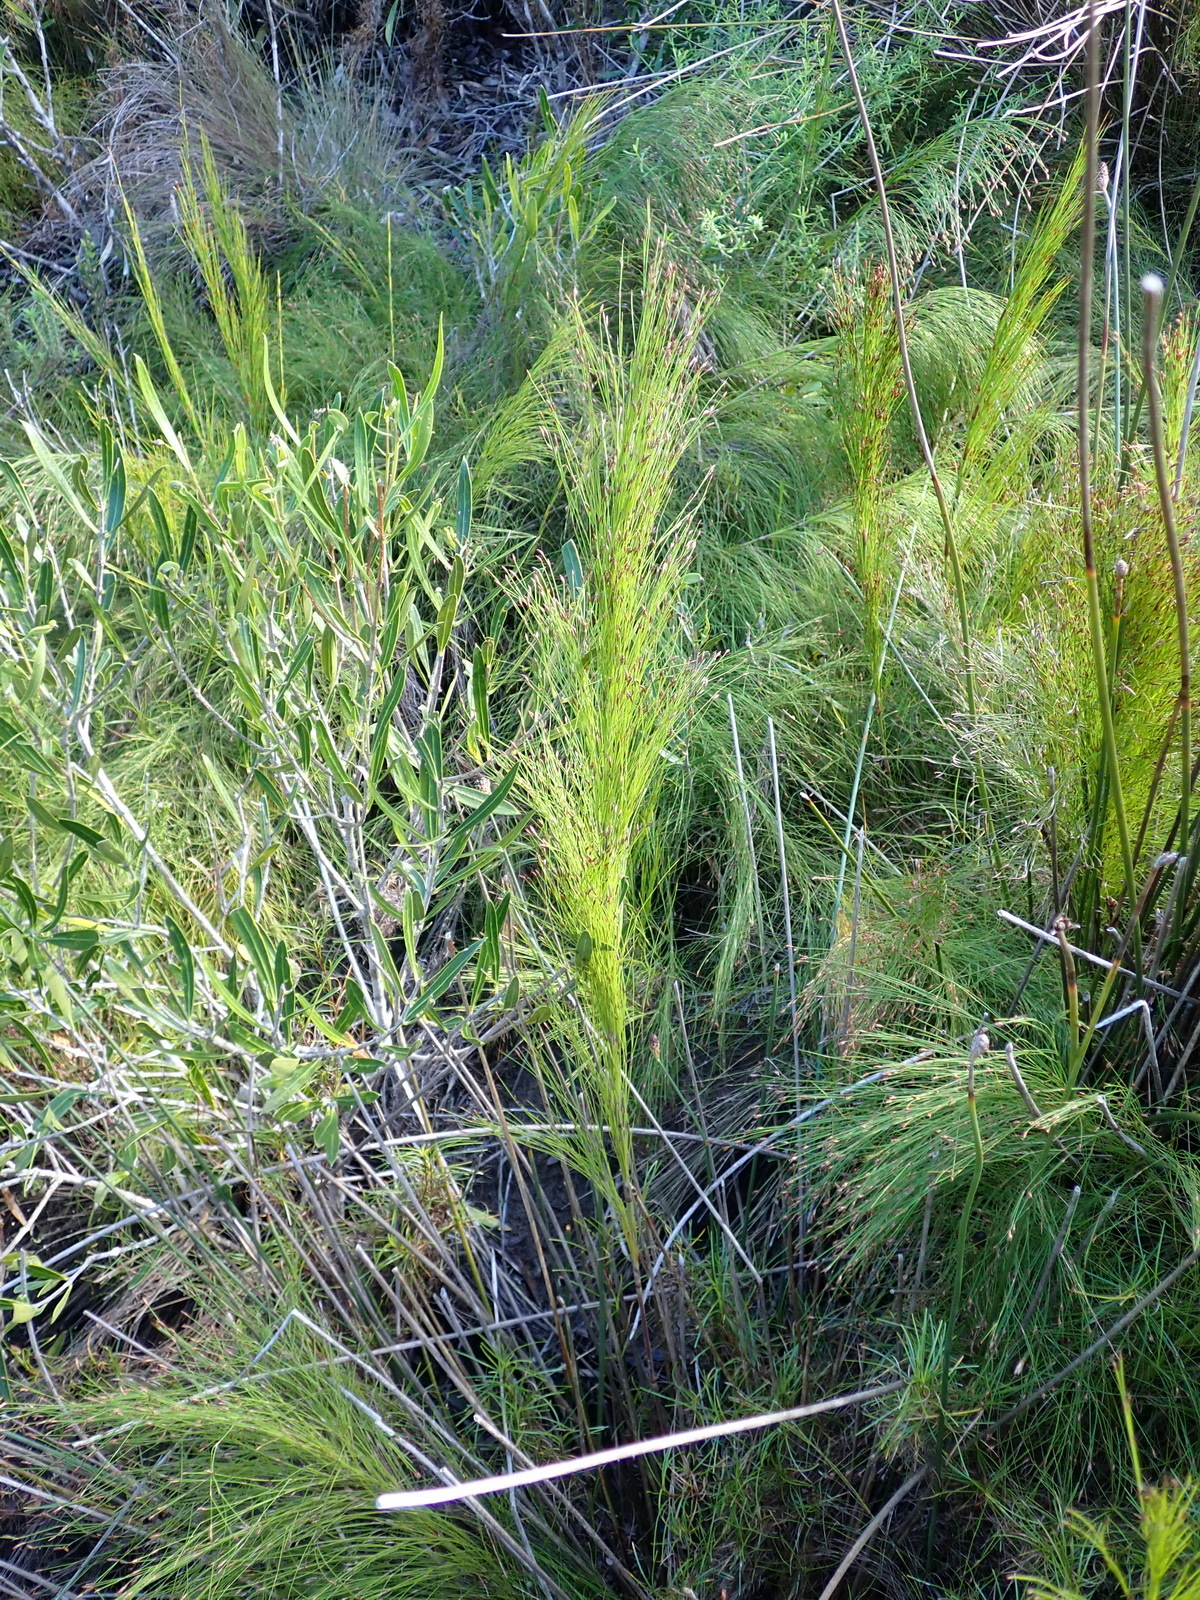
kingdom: Plantae
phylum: Tracheophyta
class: Liliopsida
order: Poales
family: Restionaceae
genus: Restio
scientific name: Restio leptoclados
